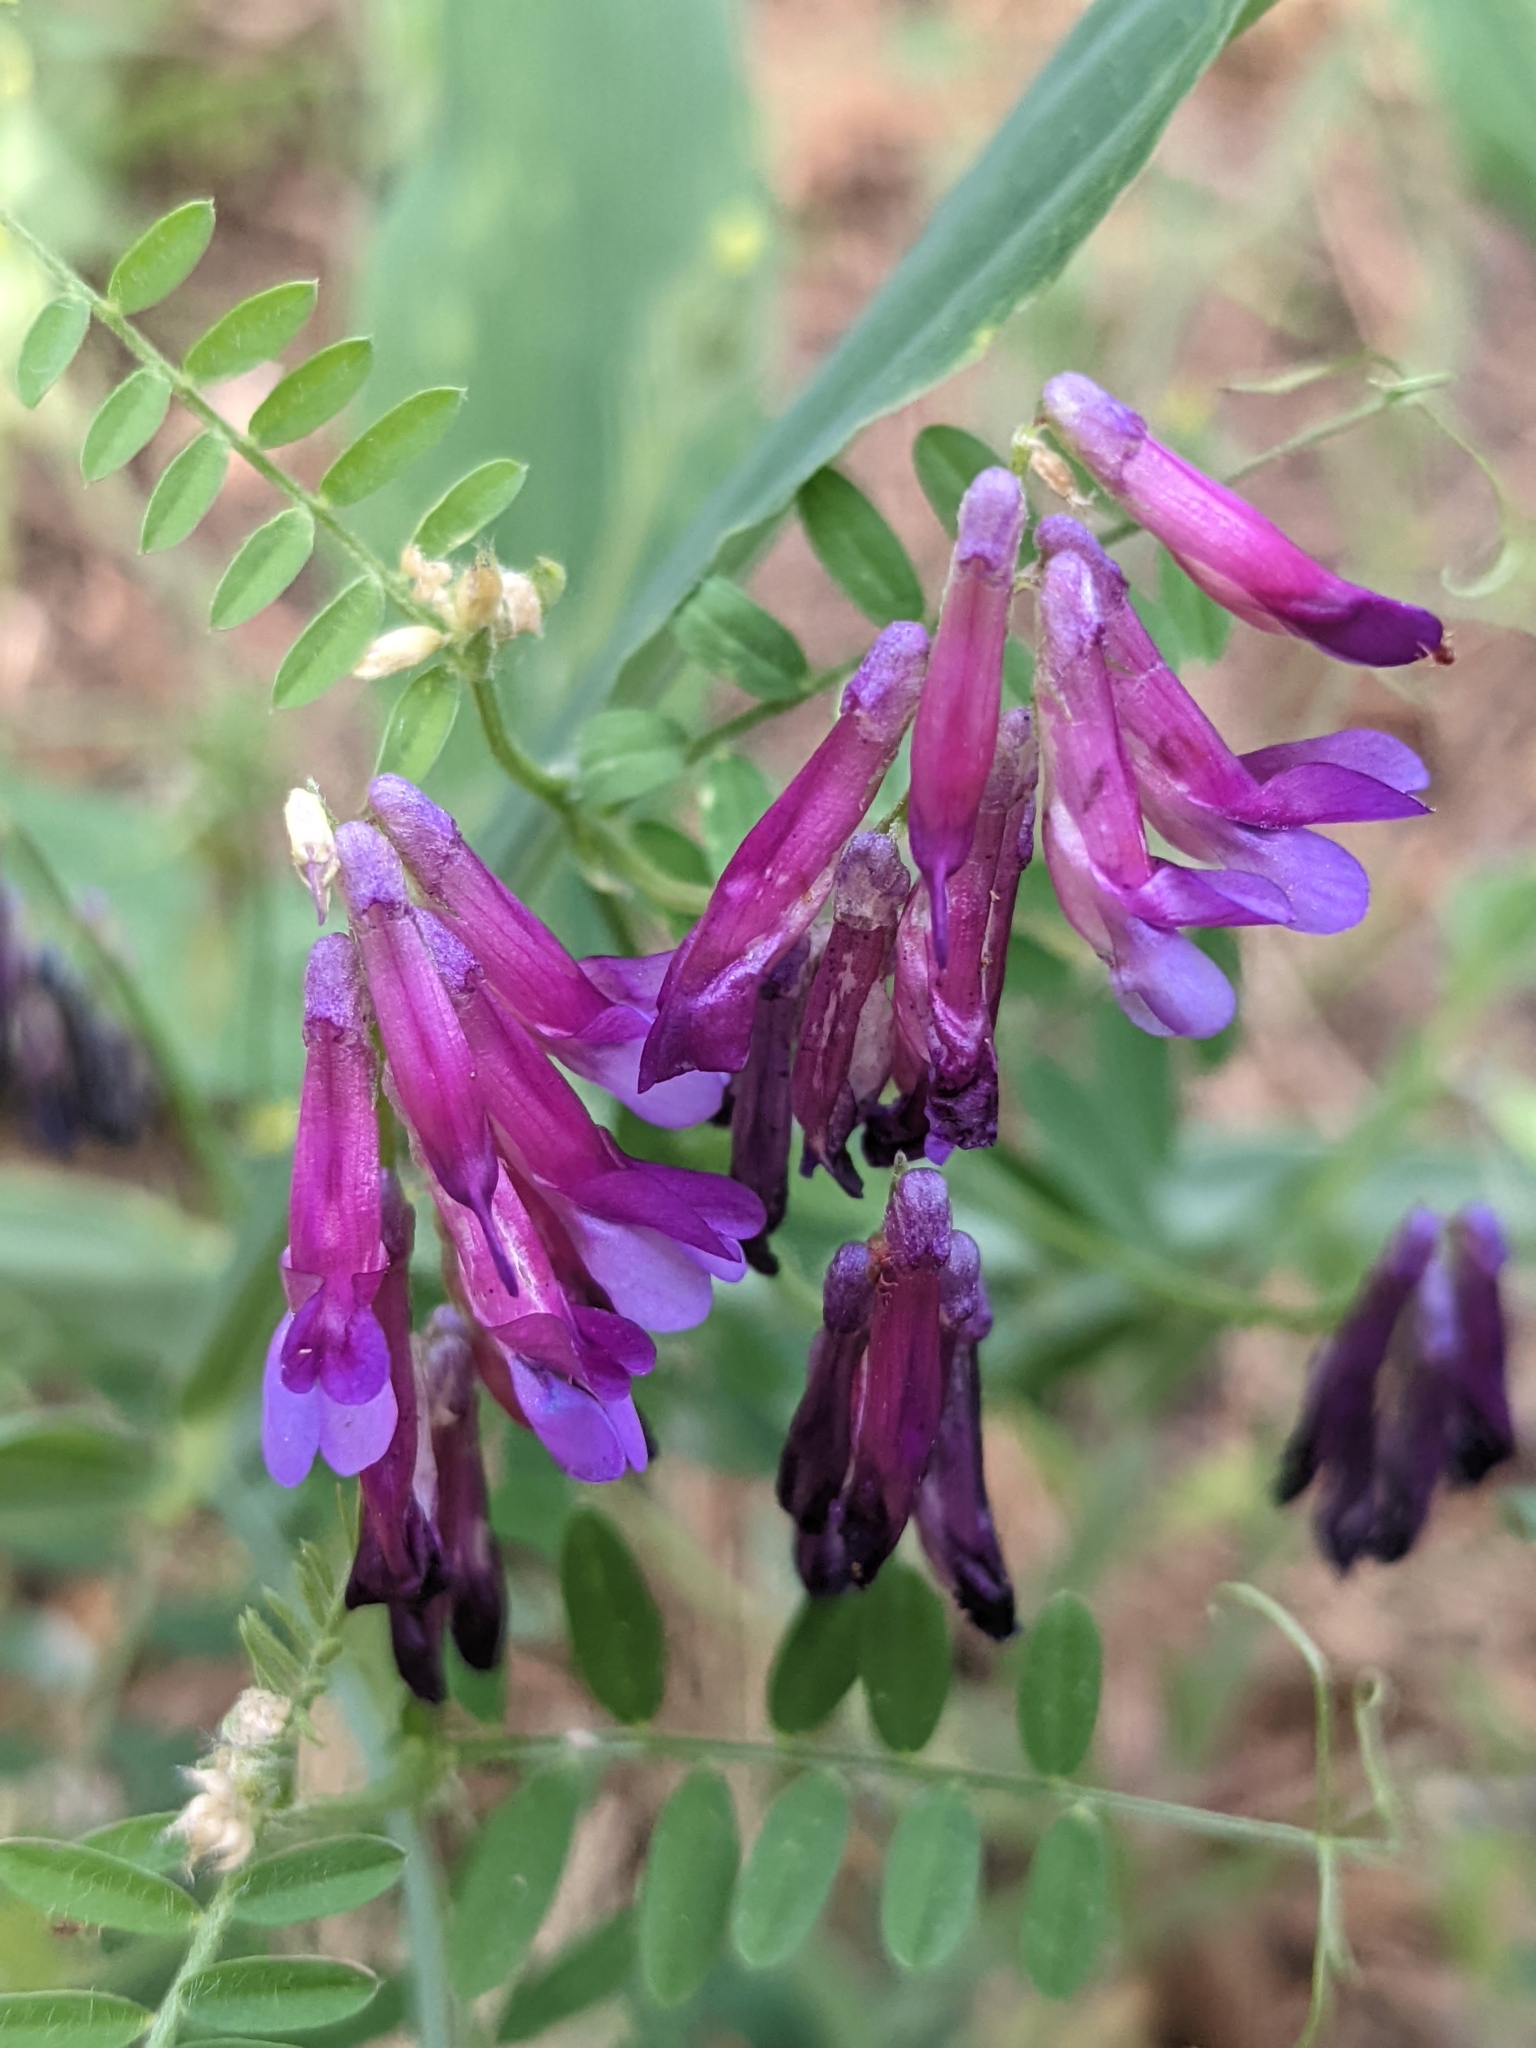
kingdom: Plantae
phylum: Tracheophyta
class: Magnoliopsida
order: Fabales
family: Fabaceae
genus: Vicia
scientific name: Vicia villosa
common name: Fodder vetch
